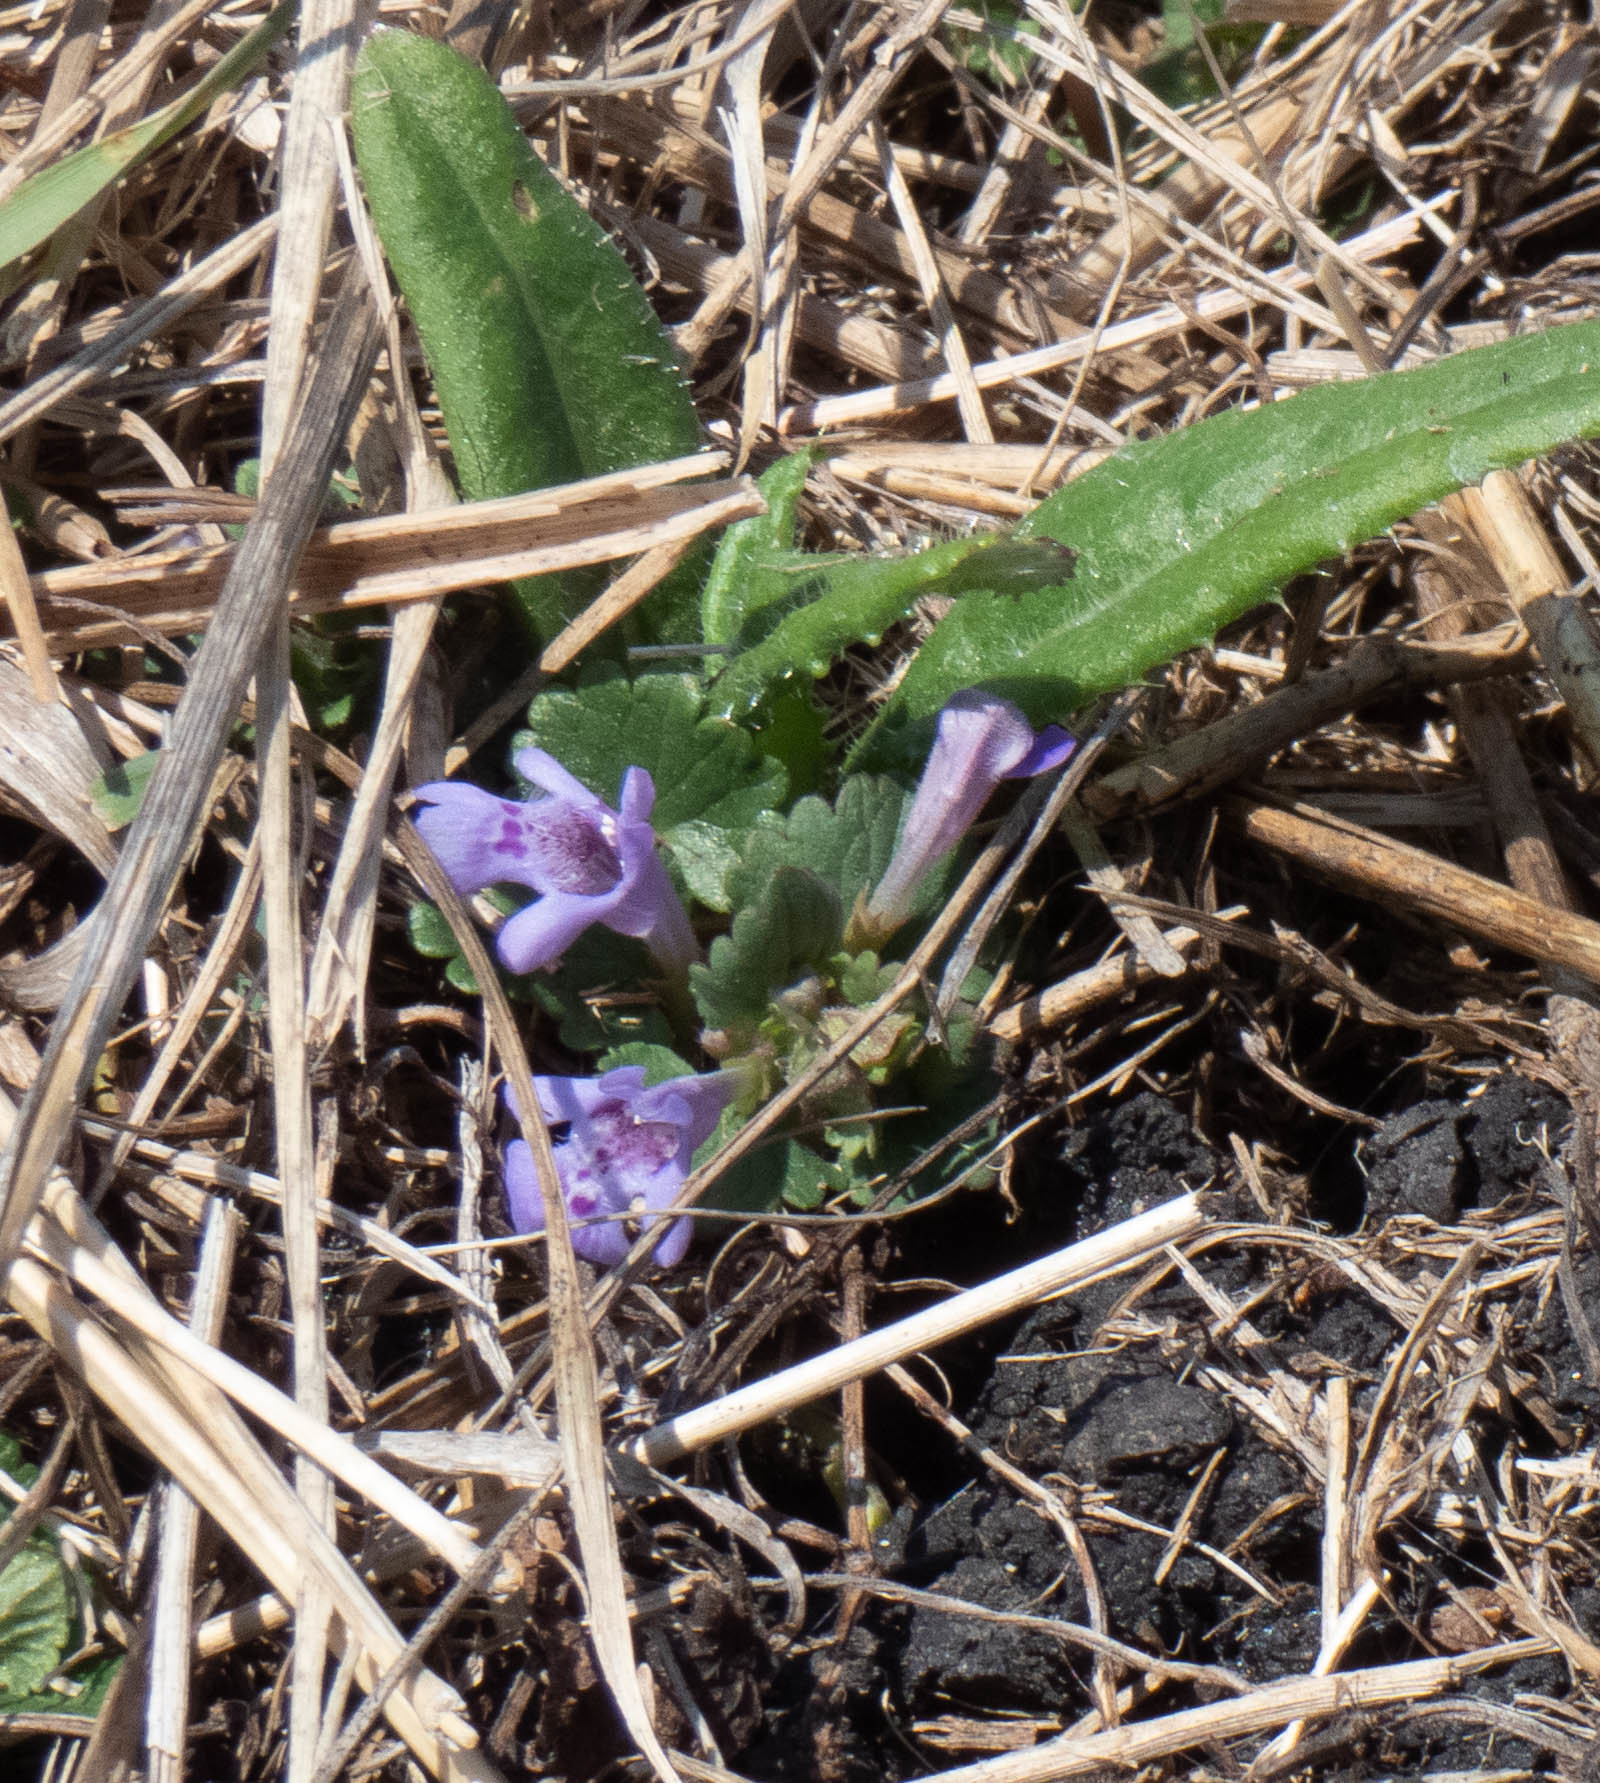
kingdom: Plantae
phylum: Tracheophyta
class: Magnoliopsida
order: Lamiales
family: Lamiaceae
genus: Glechoma
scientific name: Glechoma hederacea
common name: Ground ivy
